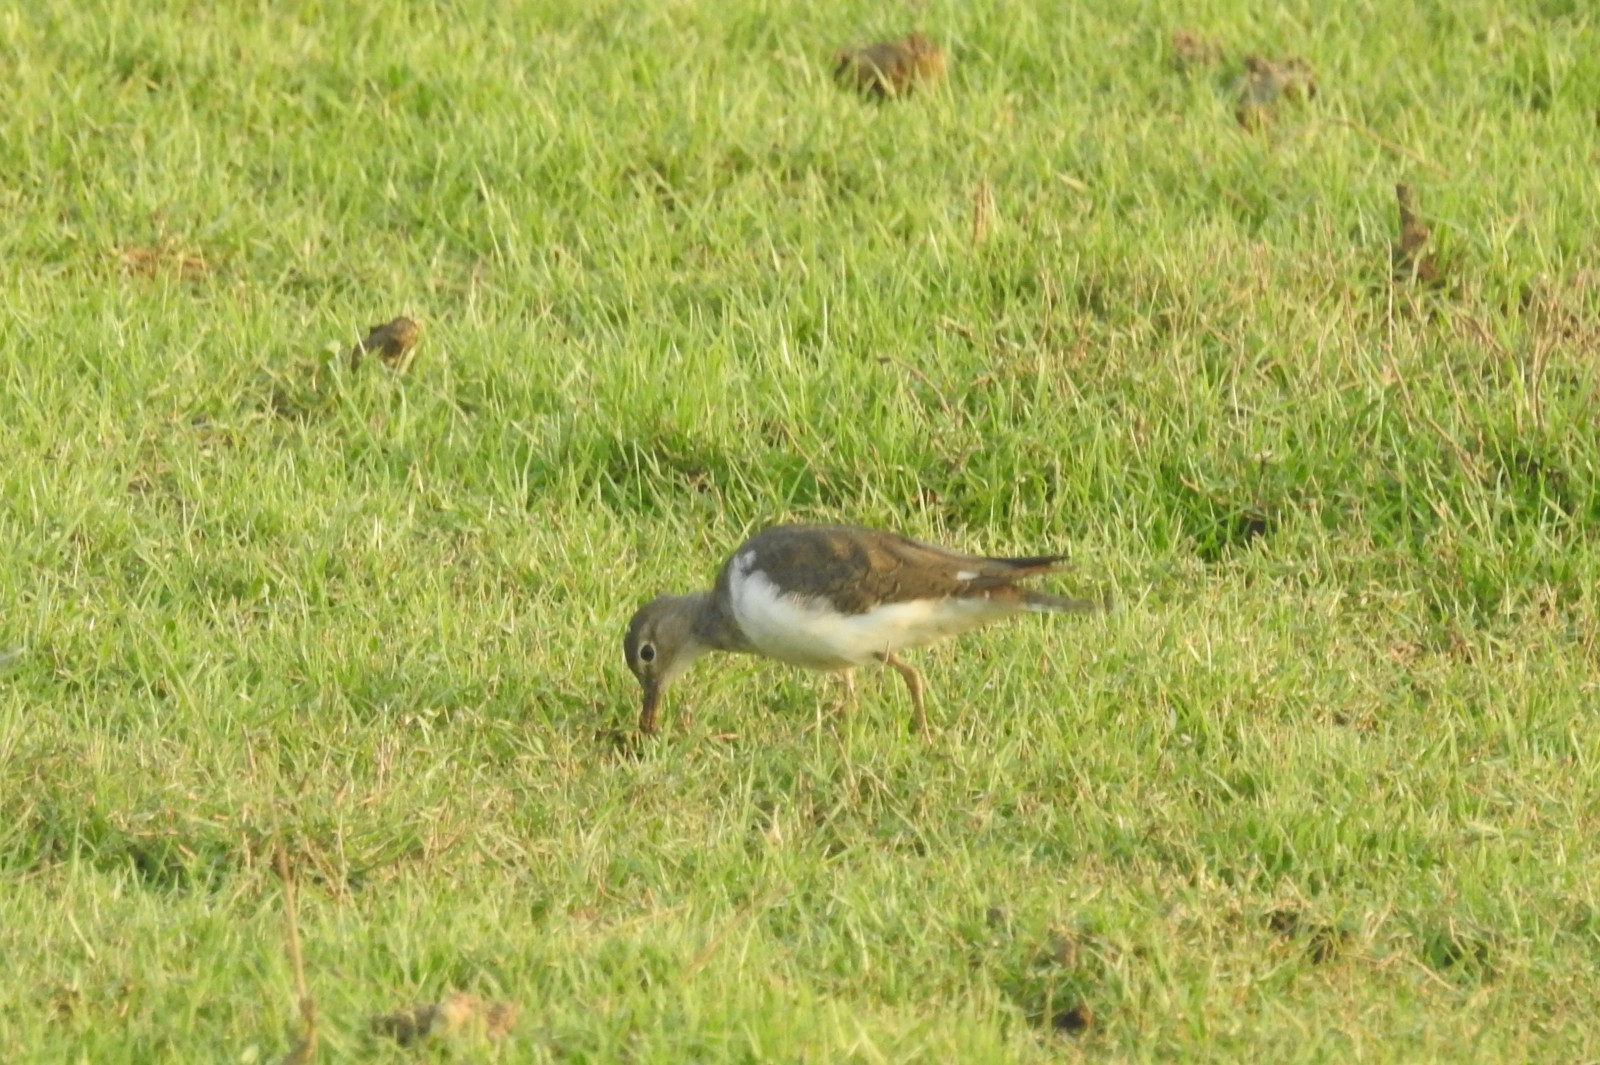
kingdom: Animalia
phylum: Chordata
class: Aves
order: Charadriiformes
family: Scolopacidae
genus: Actitis
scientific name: Actitis hypoleucos
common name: Common sandpiper
